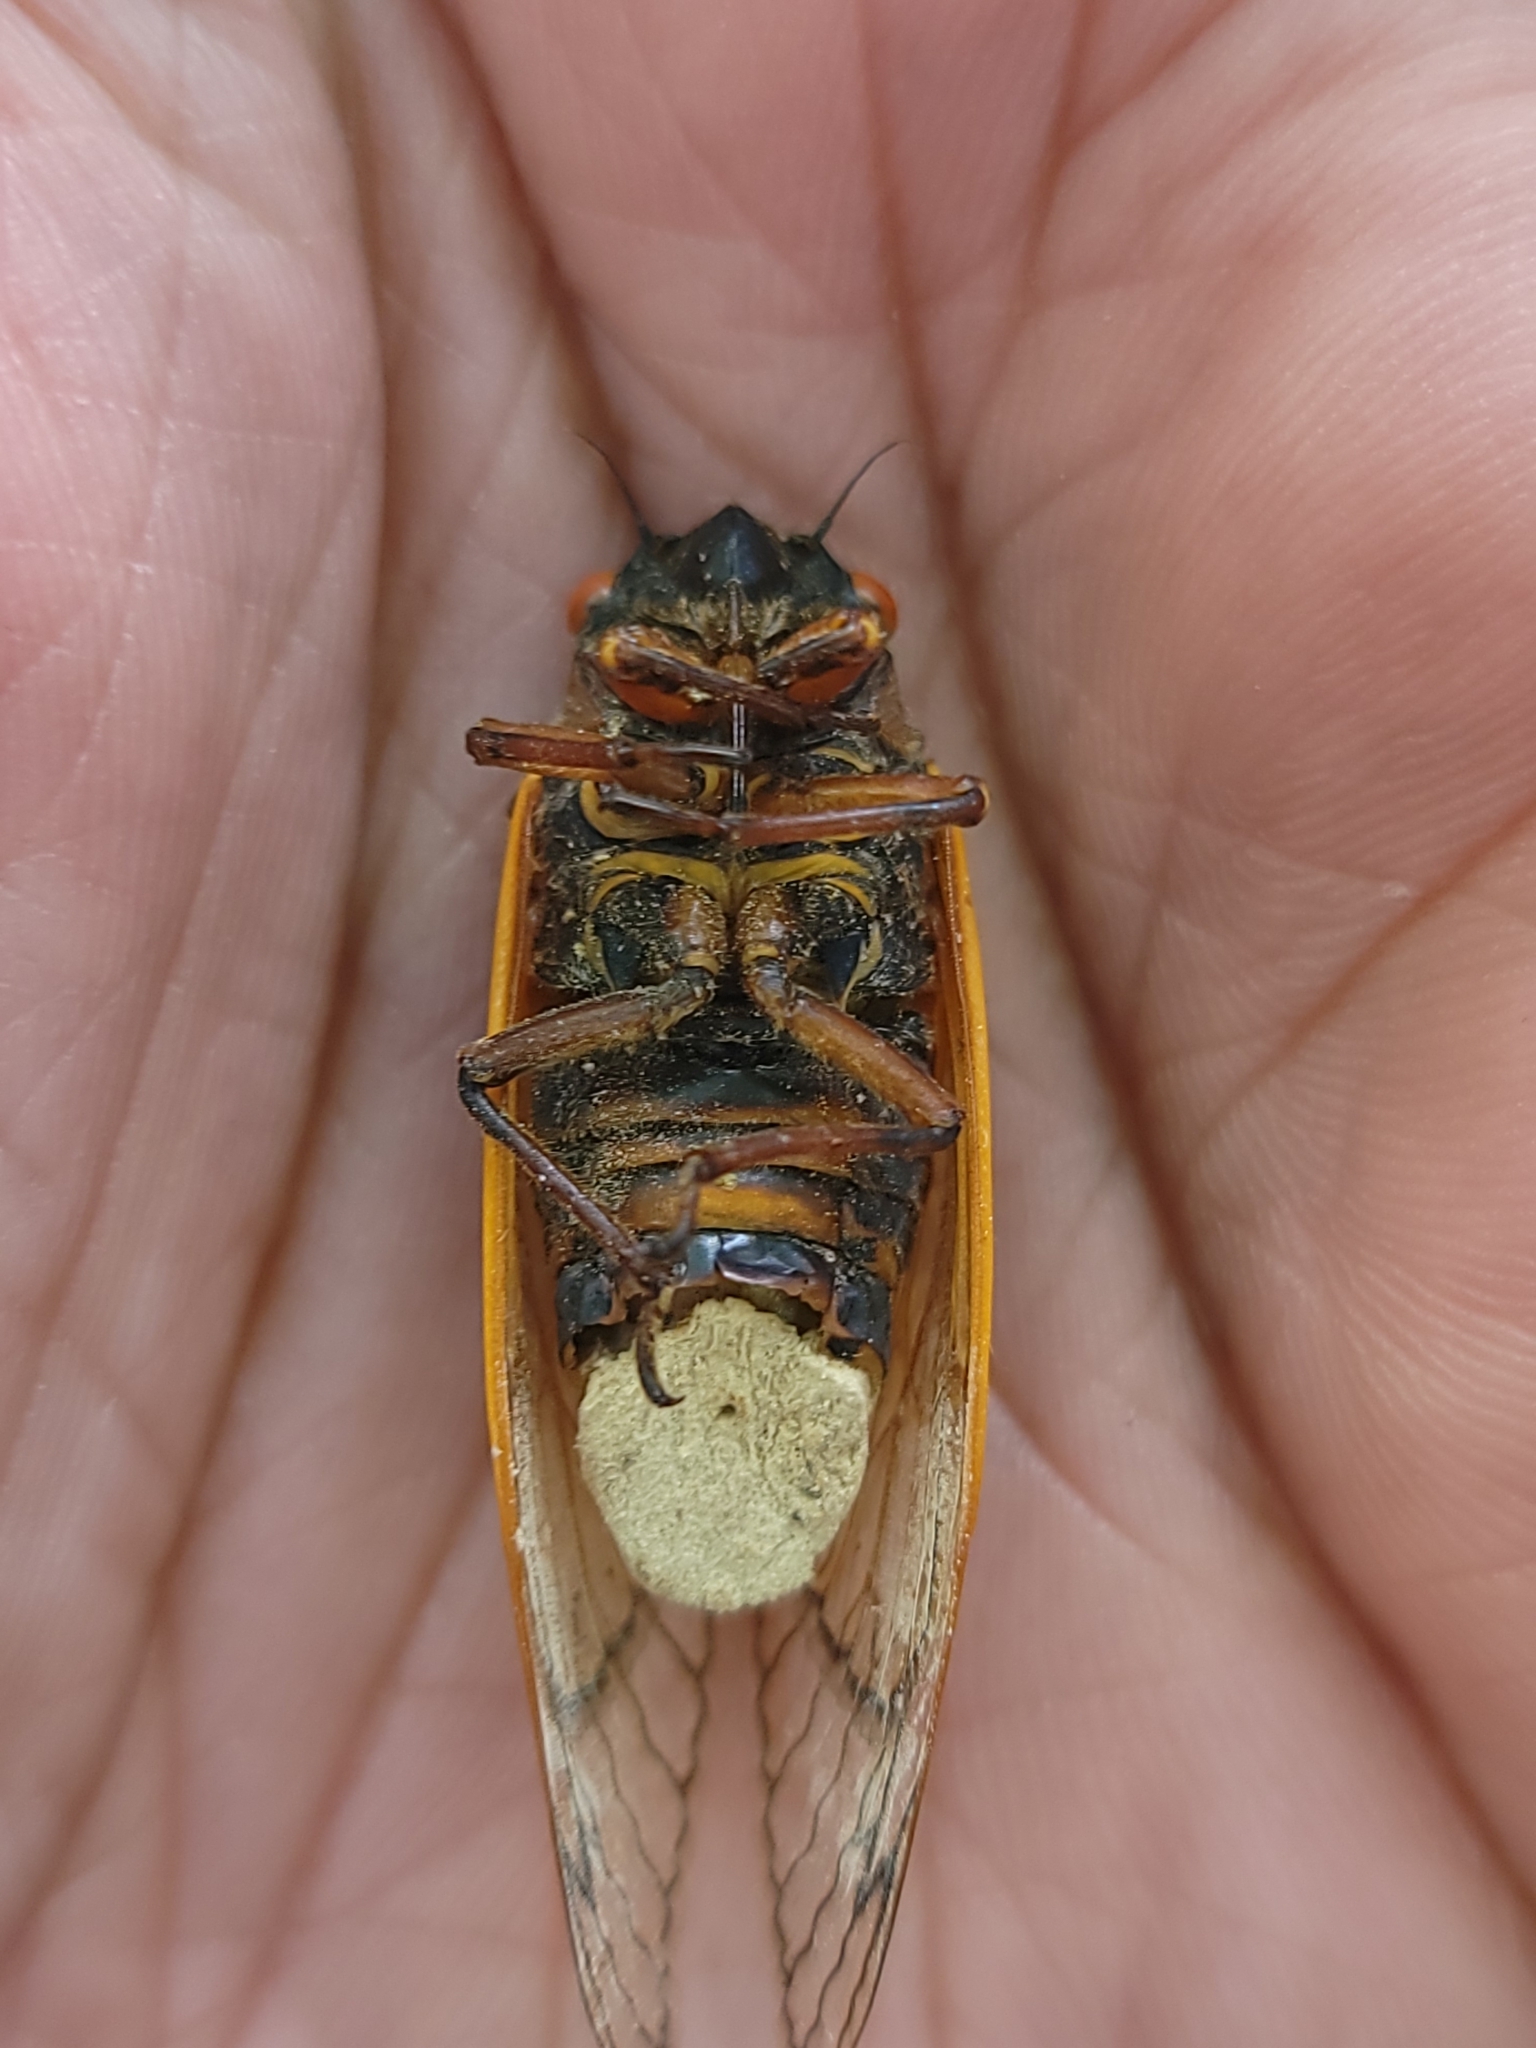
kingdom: Animalia
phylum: Arthropoda
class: Insecta
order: Hemiptera
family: Cicadidae
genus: Magicicada
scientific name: Magicicada septendecim
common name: Periodical cicada
